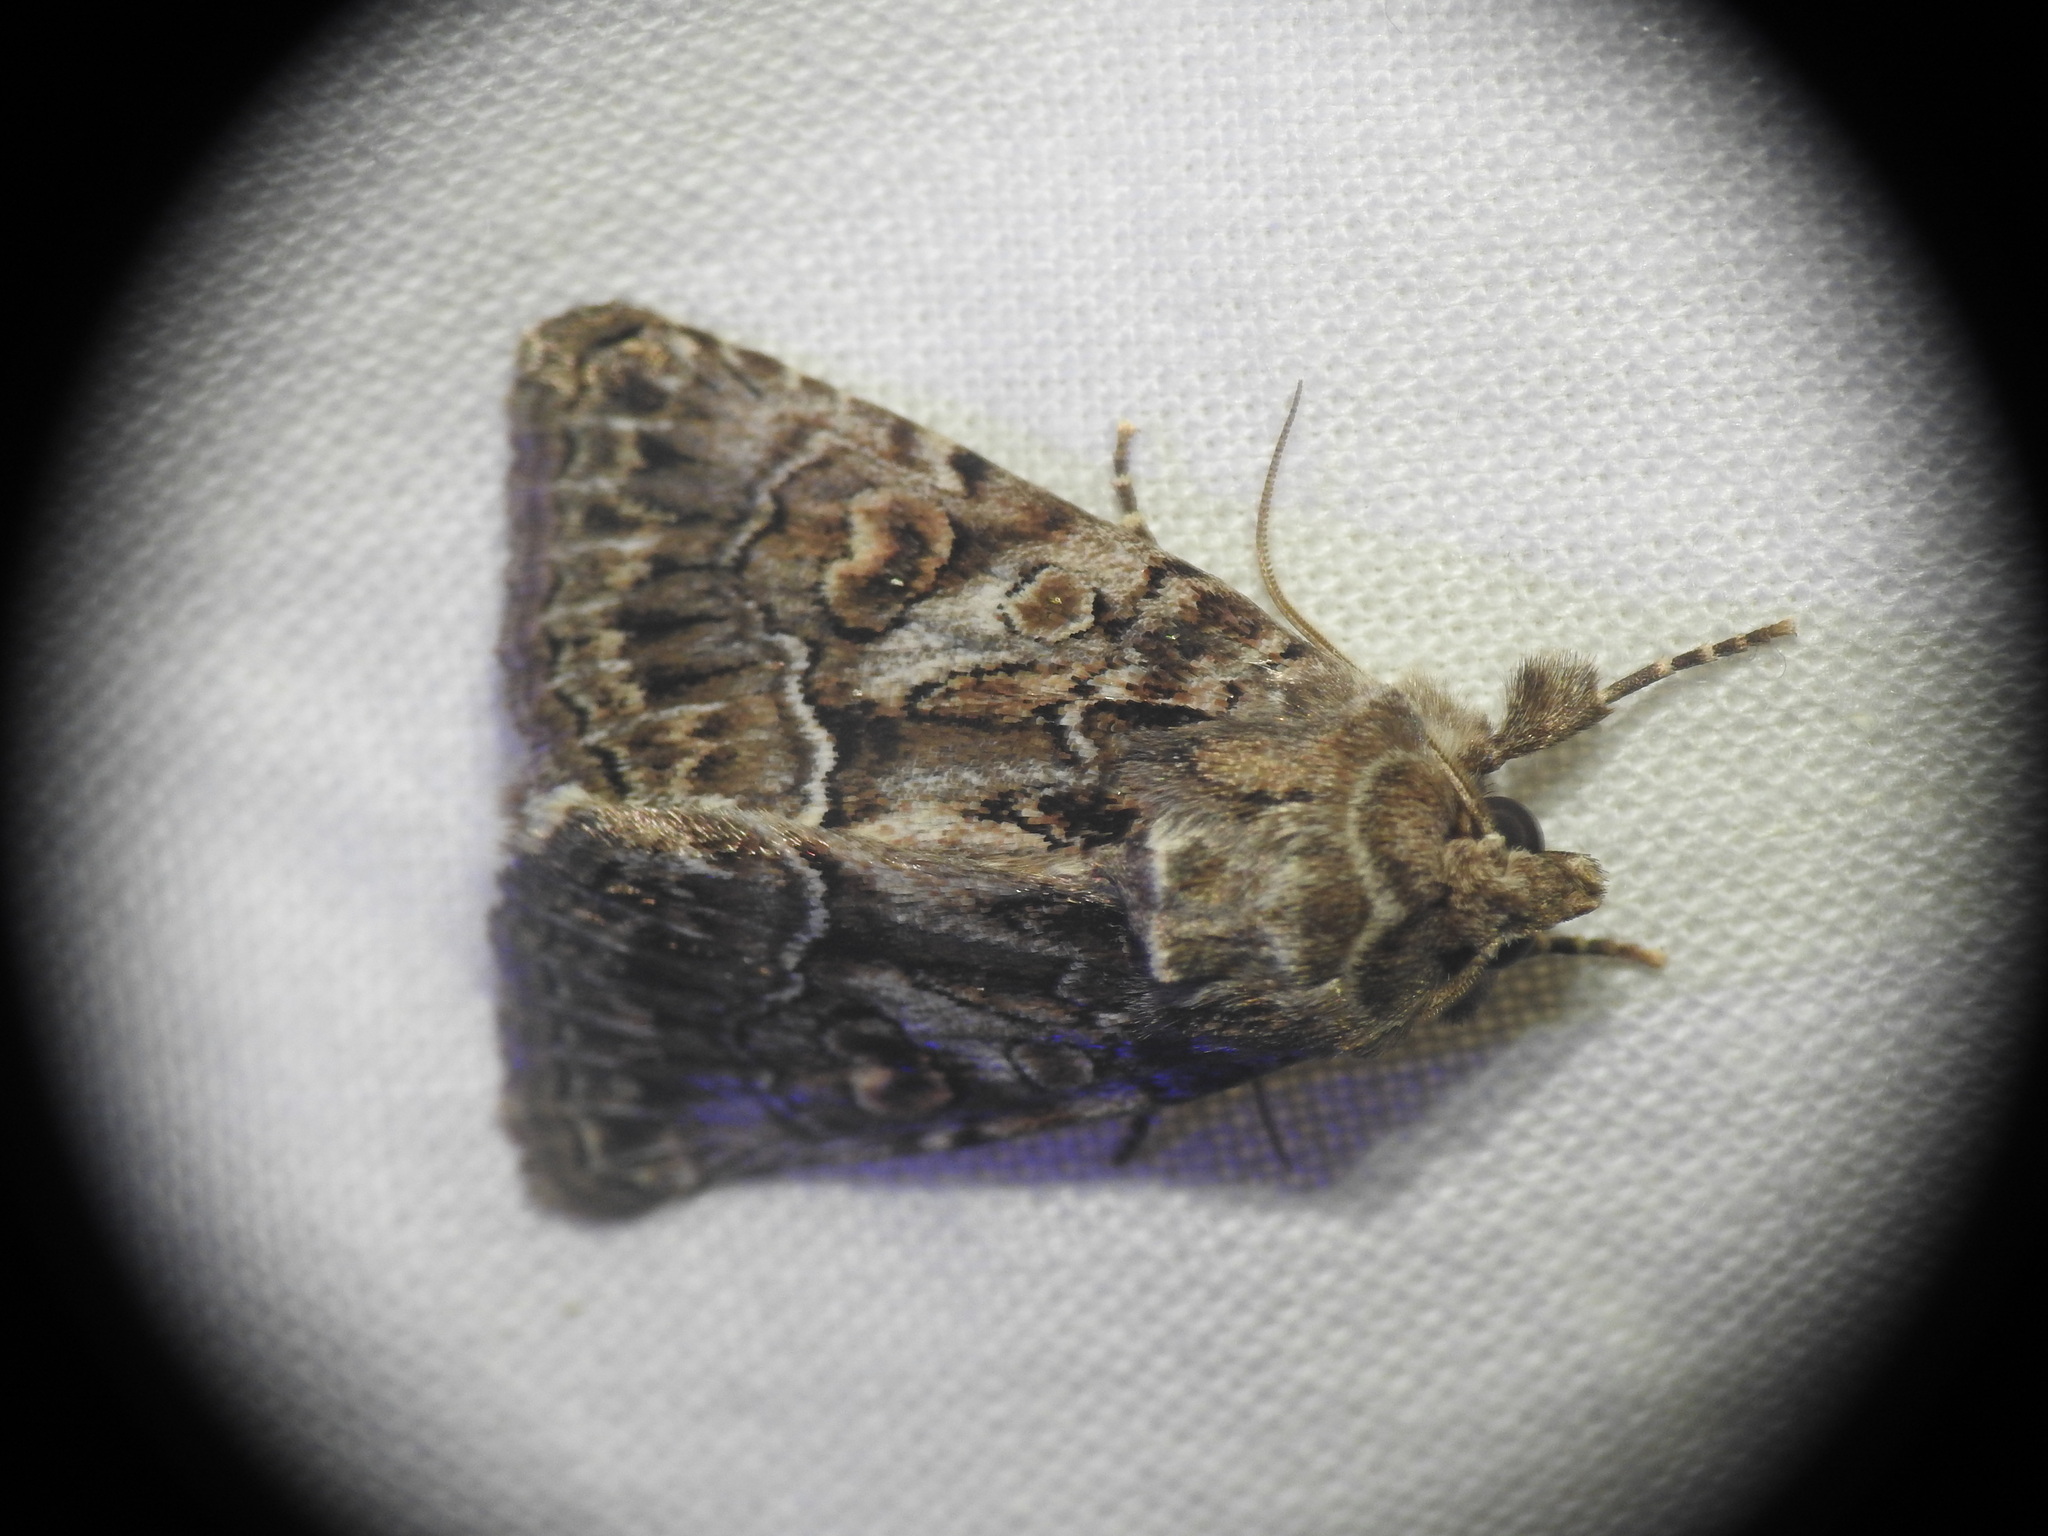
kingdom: Animalia
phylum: Arthropoda
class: Insecta
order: Lepidoptera
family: Noctuidae
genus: Thalpophila
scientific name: Thalpophila matura
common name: Straw underwing
